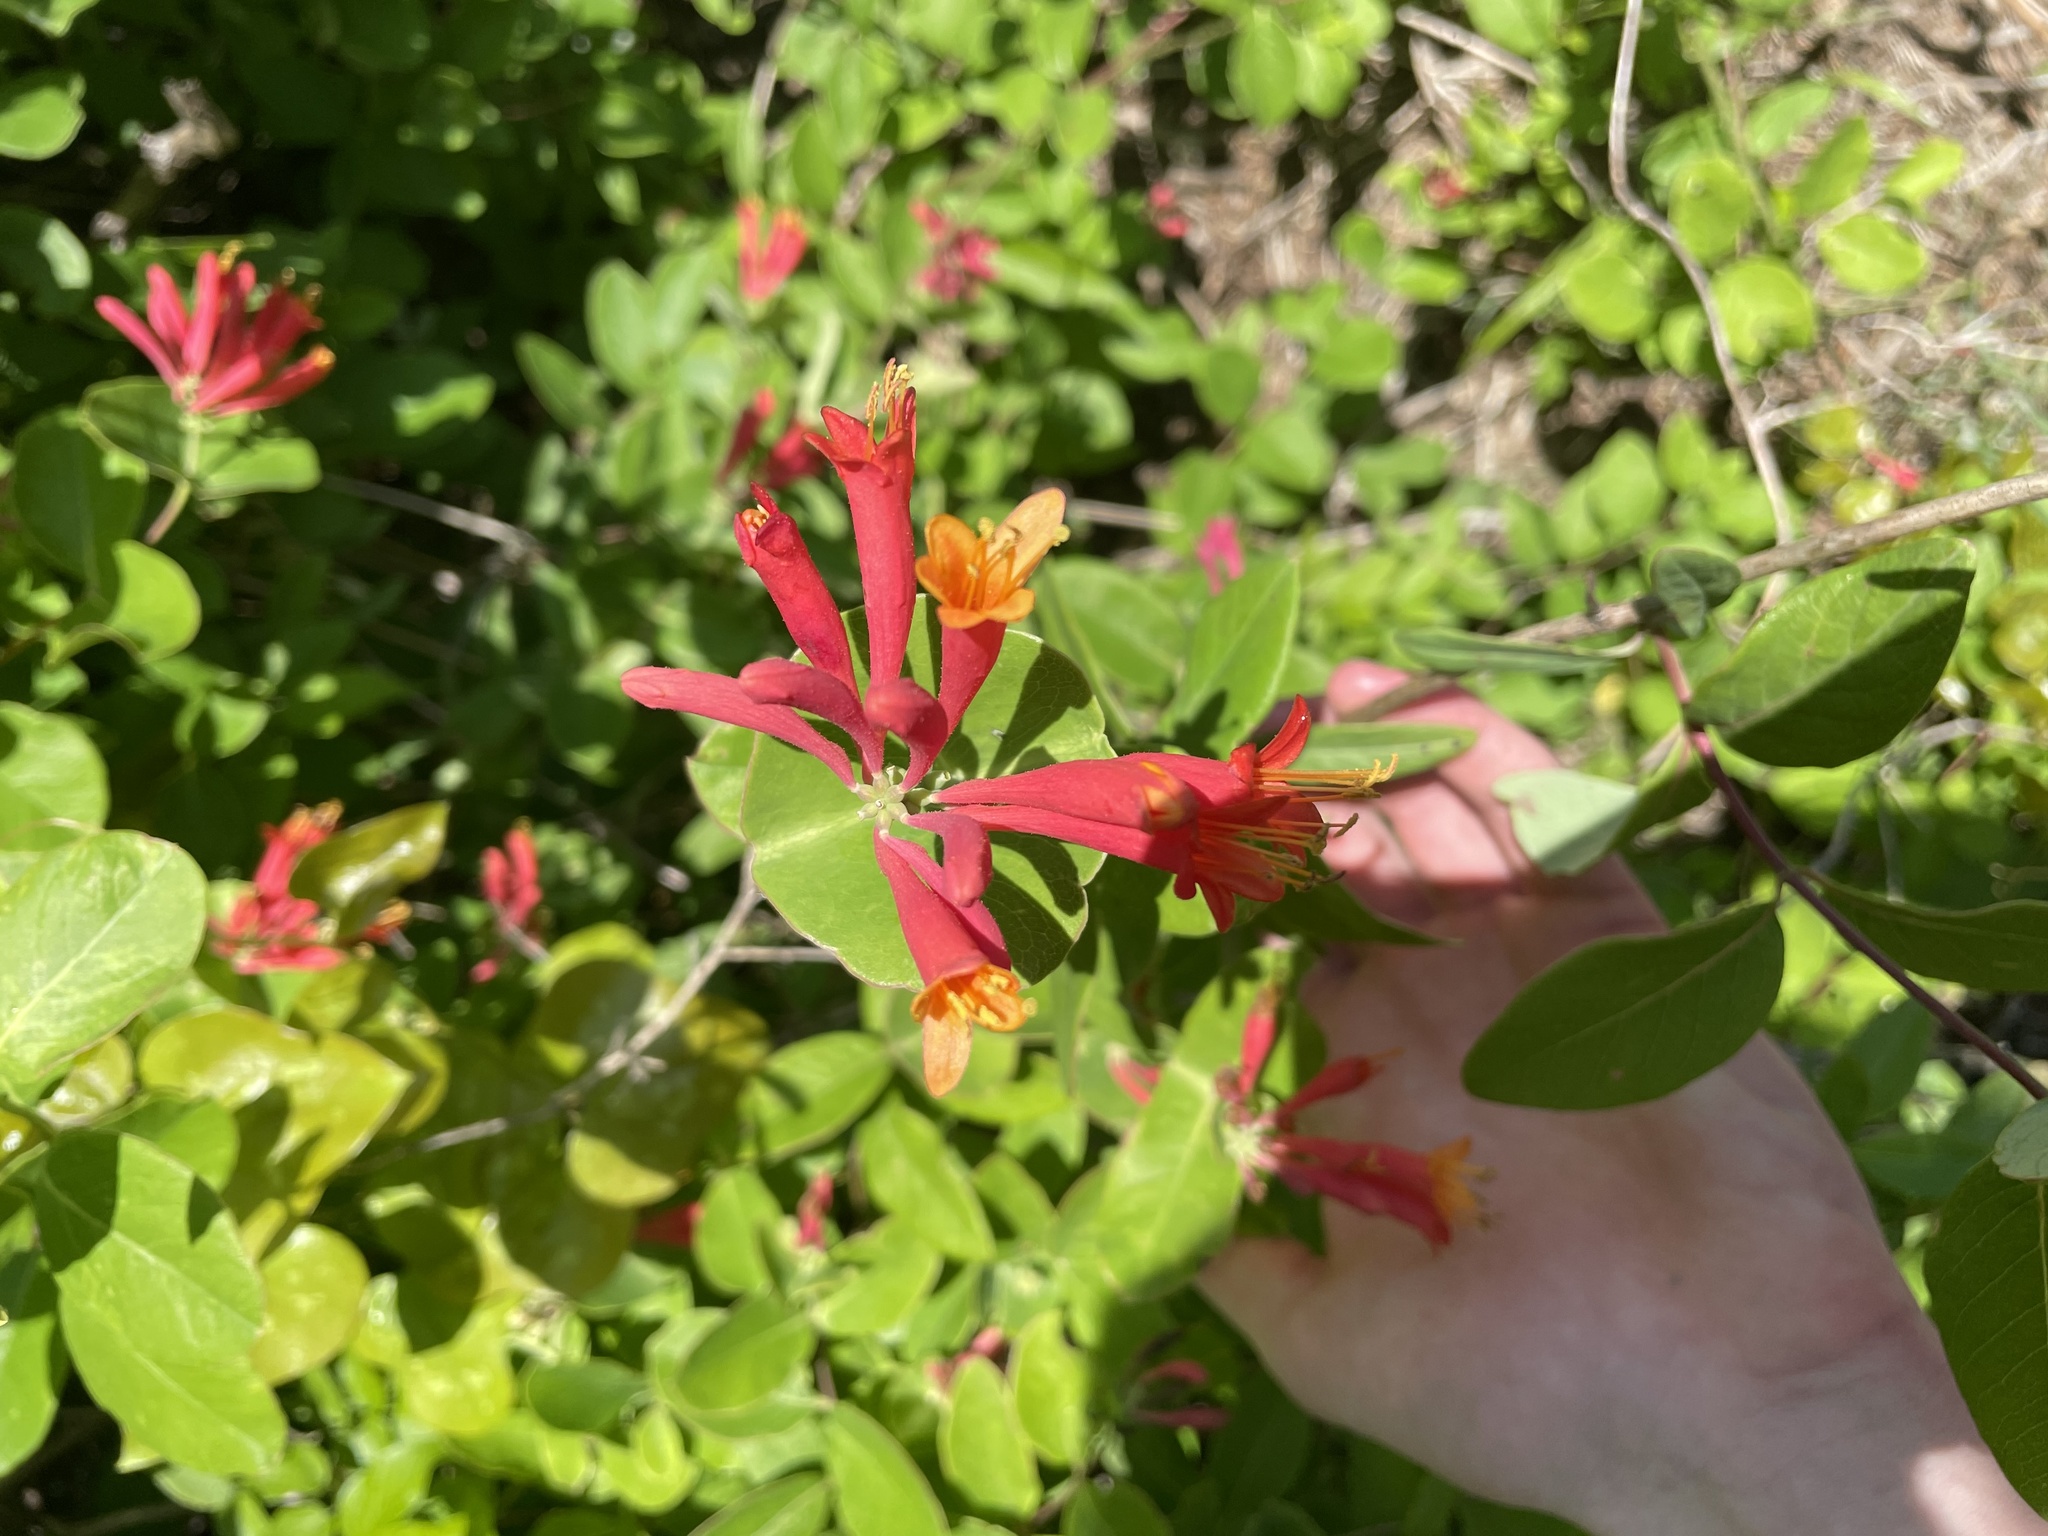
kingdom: Plantae
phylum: Tracheophyta
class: Magnoliopsida
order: Dipsacales
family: Caprifoliaceae
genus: Lonicera
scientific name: Lonicera sempervirens
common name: Coral honeysuckle
